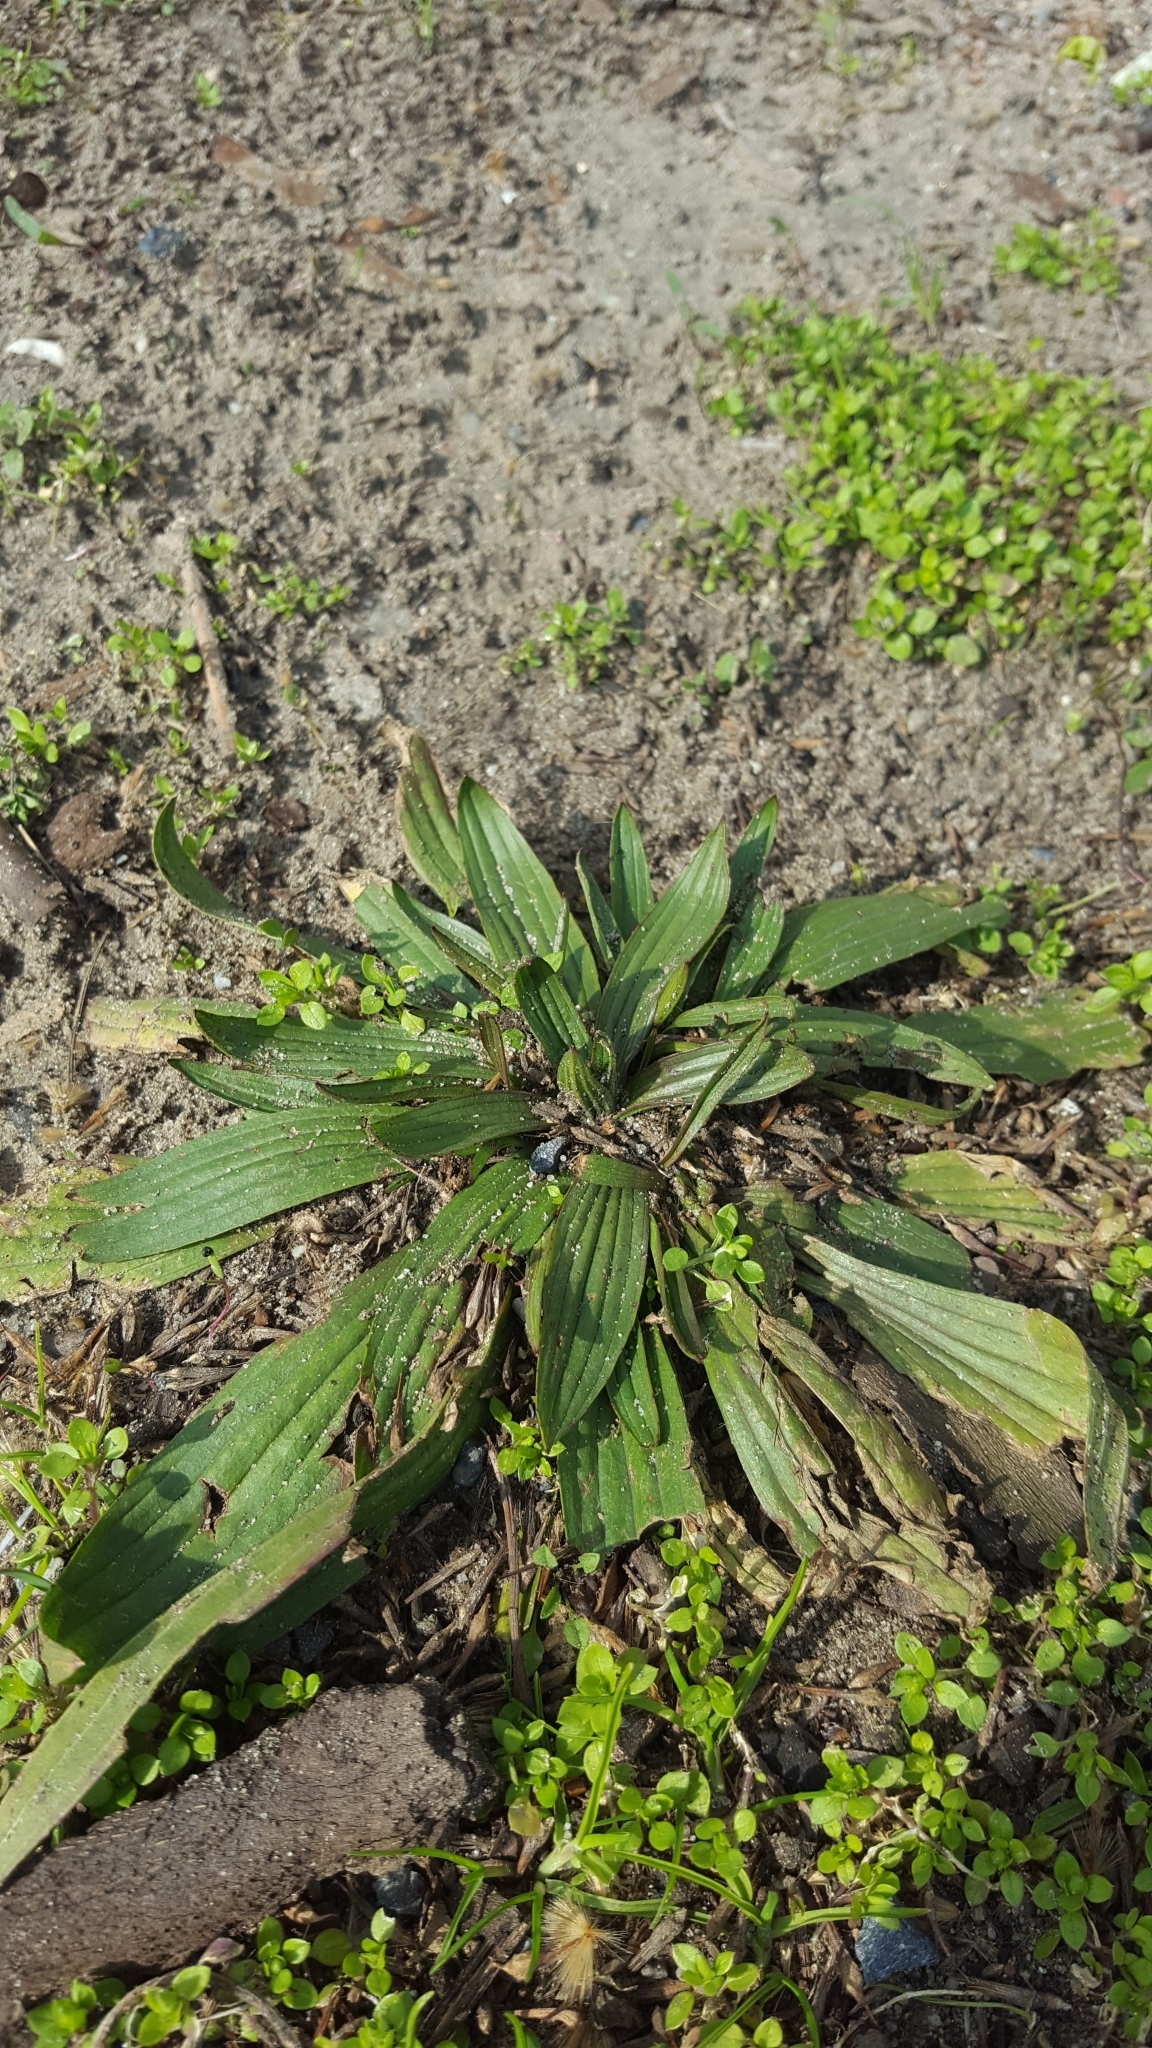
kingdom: Plantae
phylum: Tracheophyta
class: Magnoliopsida
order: Lamiales
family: Plantaginaceae
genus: Plantago
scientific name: Plantago lanceolata
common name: Ribwort plantain
